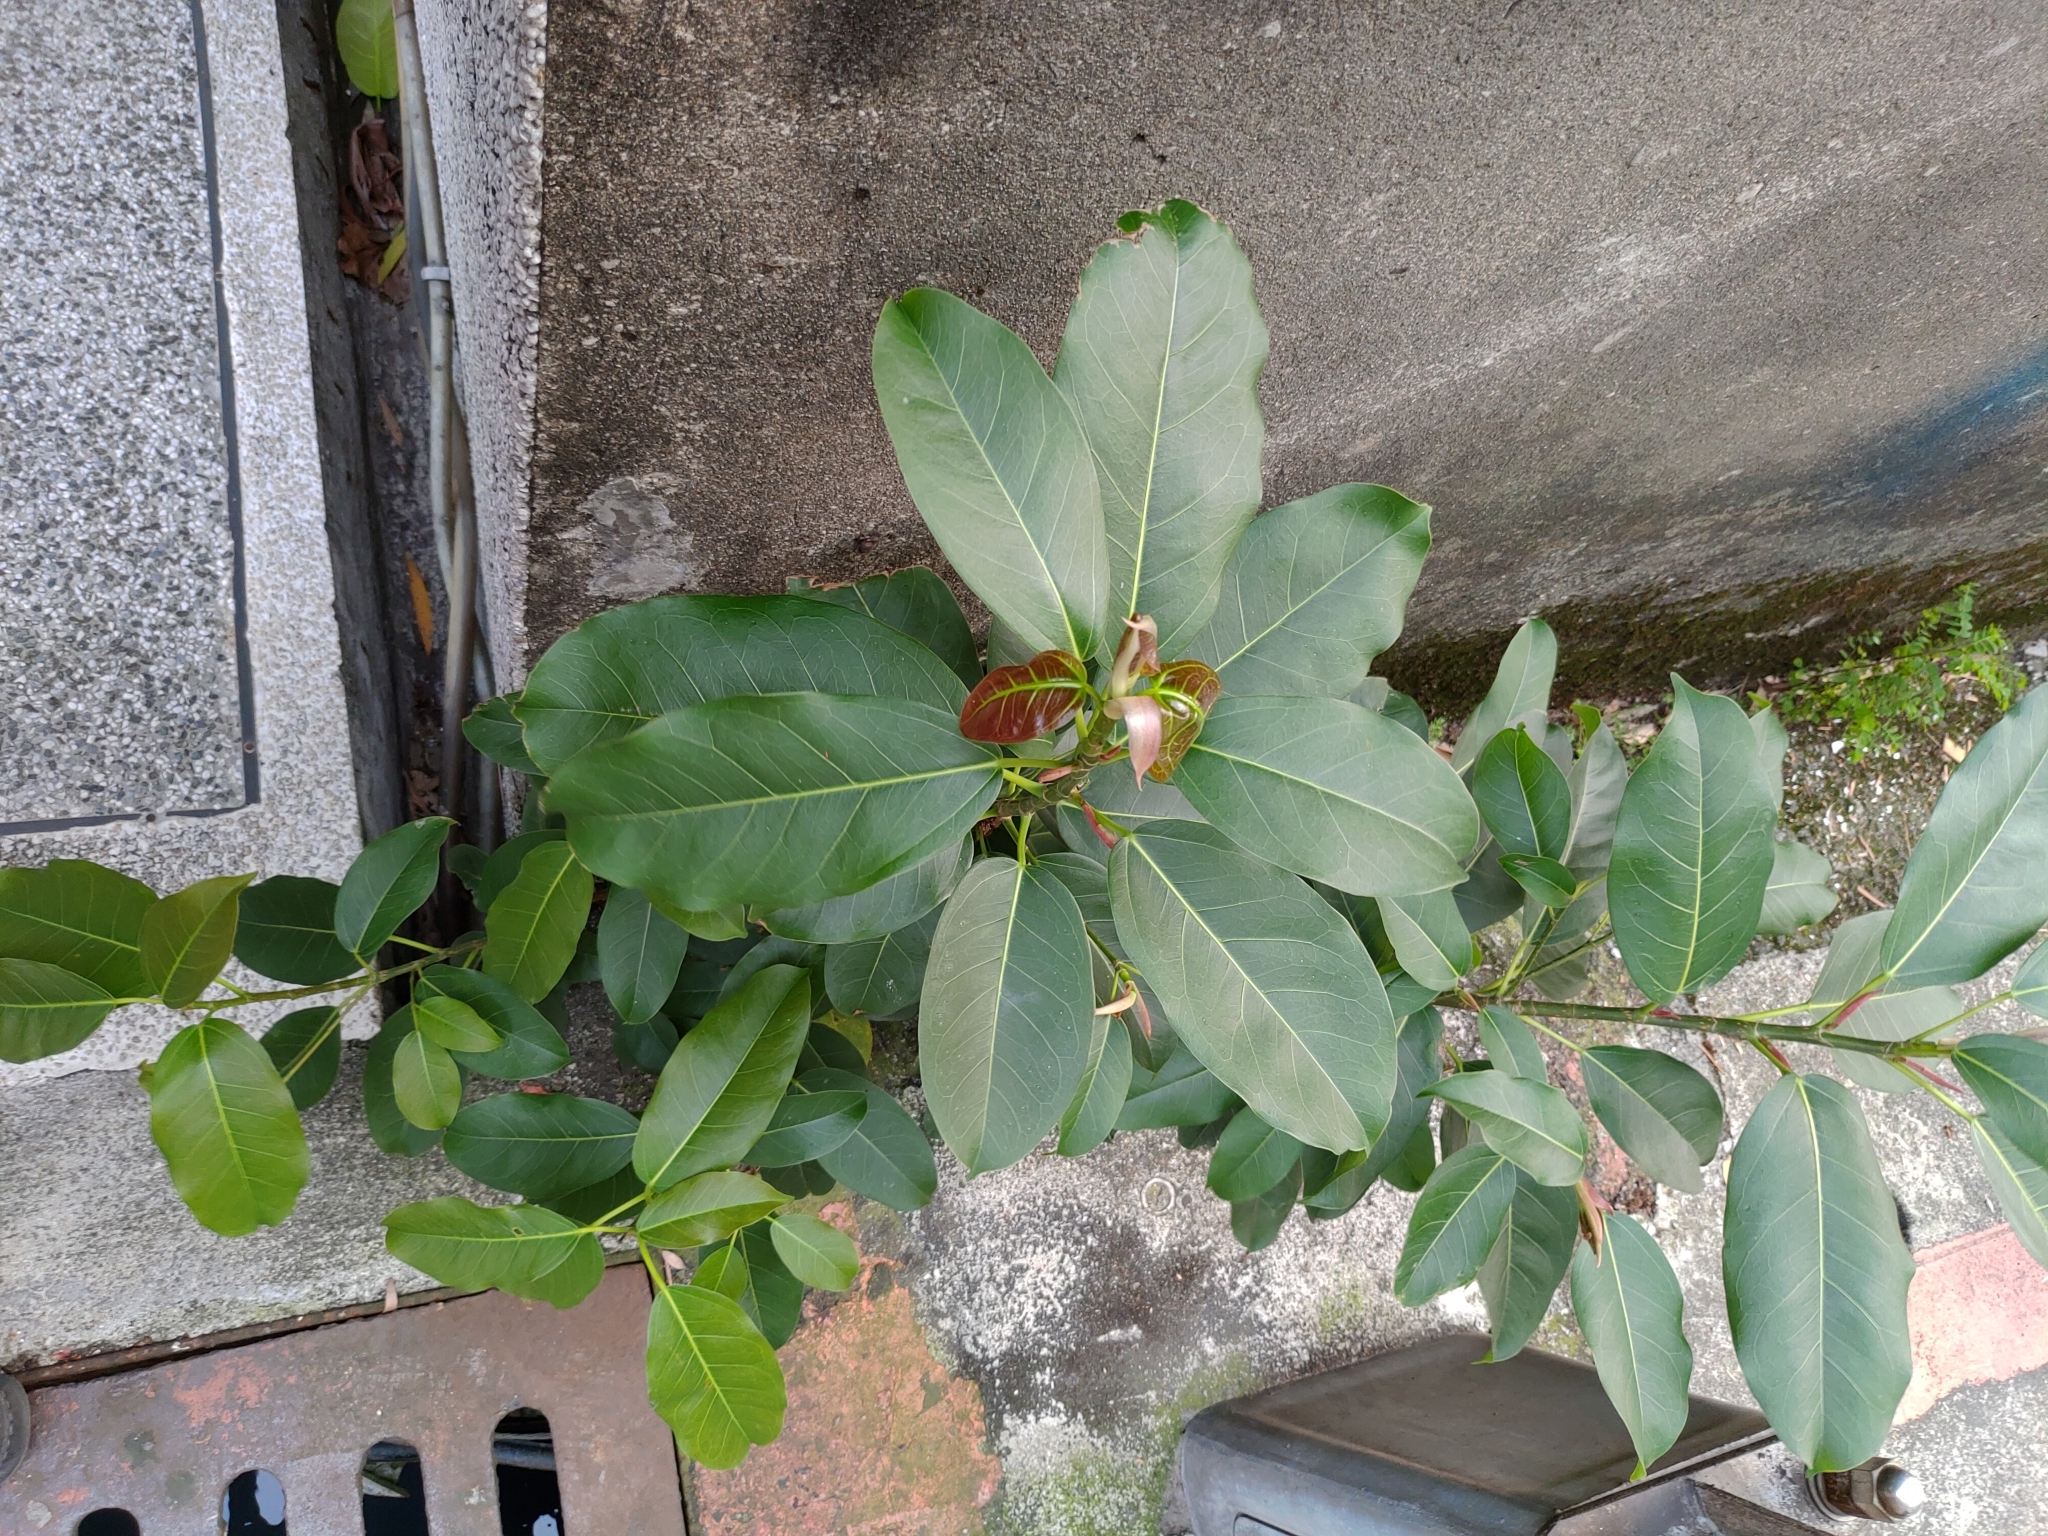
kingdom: Plantae
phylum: Tracheophyta
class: Magnoliopsida
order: Rosales
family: Moraceae
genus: Ficus
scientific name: Ficus subpisocarpa
